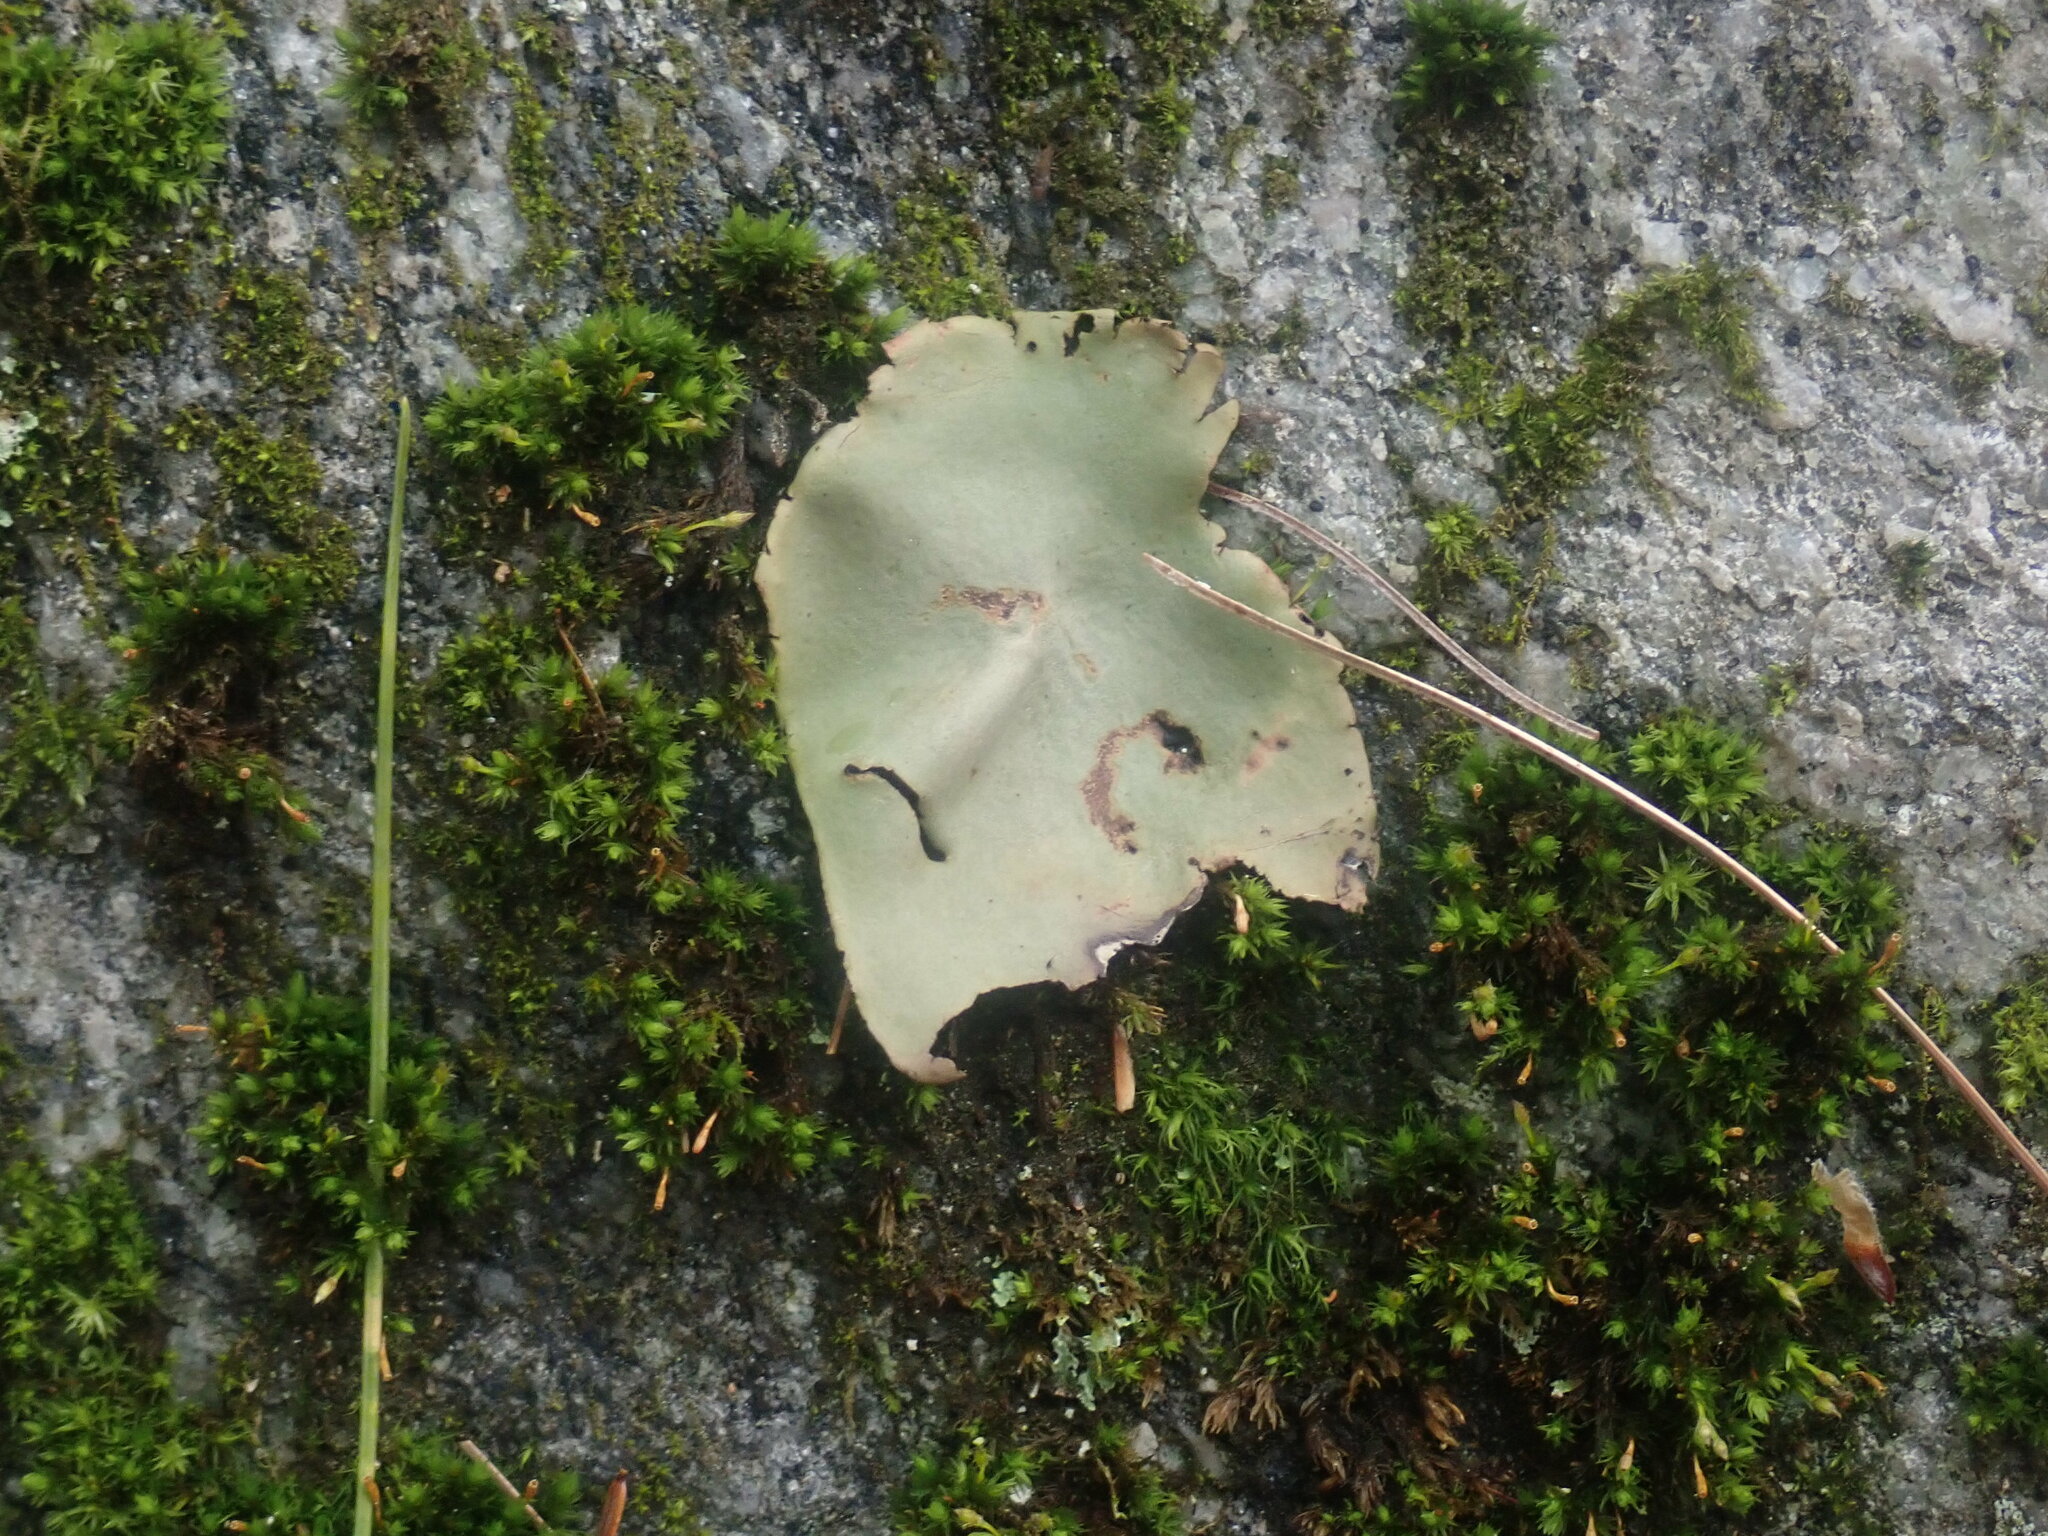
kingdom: Fungi
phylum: Ascomycota
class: Lecanoromycetes
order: Umbilicariales
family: Umbilicariaceae
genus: Umbilicaria
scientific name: Umbilicaria mammulata
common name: Smooth rock tripe
